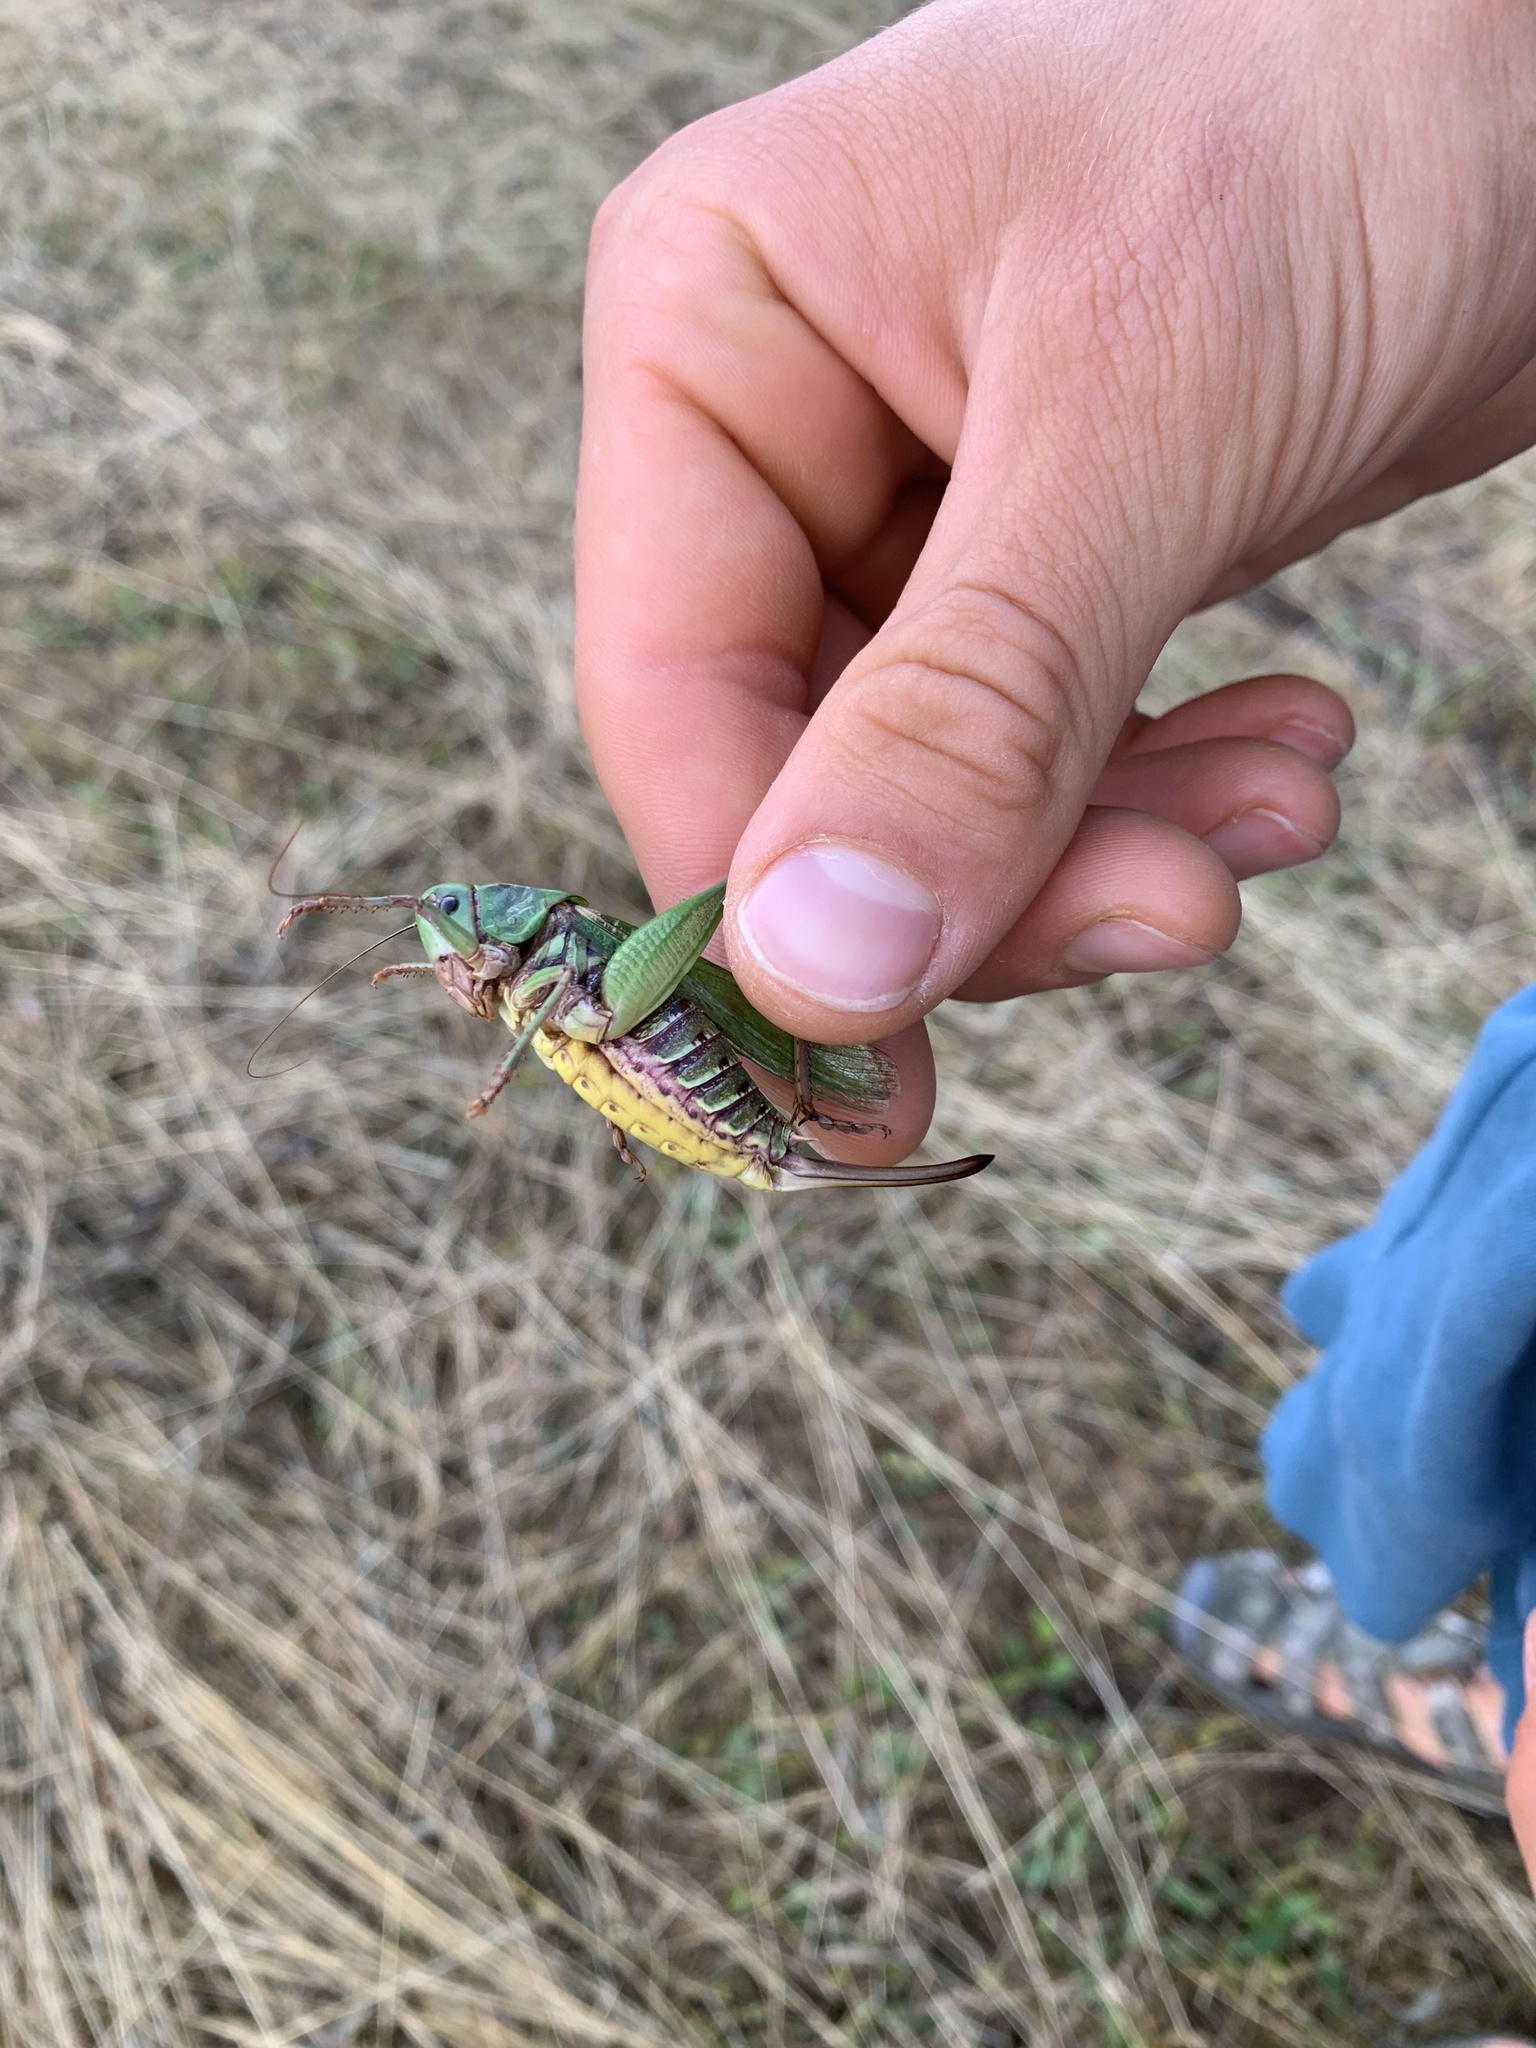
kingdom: Animalia
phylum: Arthropoda
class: Insecta
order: Orthoptera
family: Tettigoniidae
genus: Decticus
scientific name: Decticus verrucivorus
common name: Wart-biter
